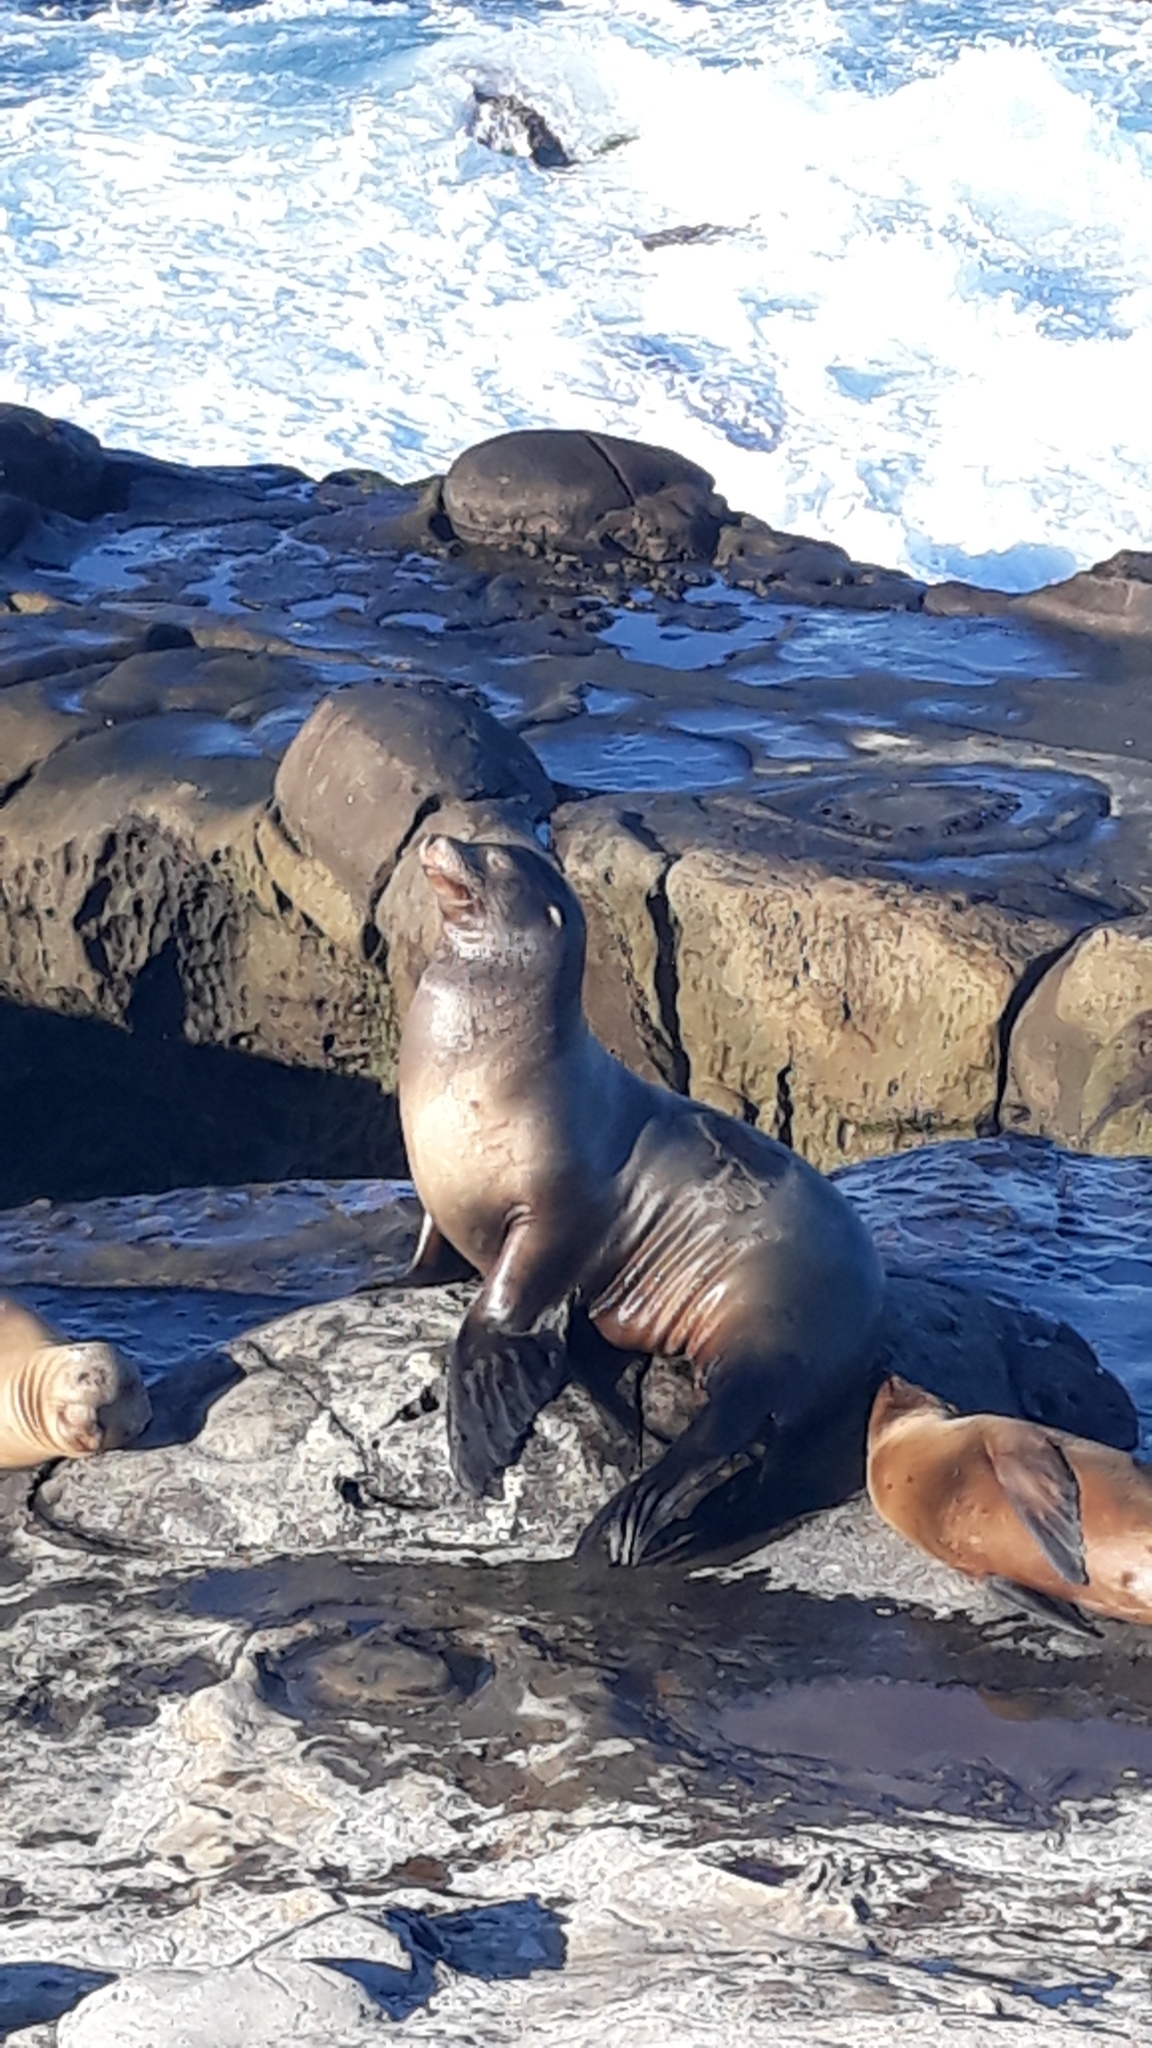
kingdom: Animalia
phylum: Chordata
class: Mammalia
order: Carnivora
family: Otariidae
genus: Zalophus
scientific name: Zalophus californianus
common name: California sea lion
